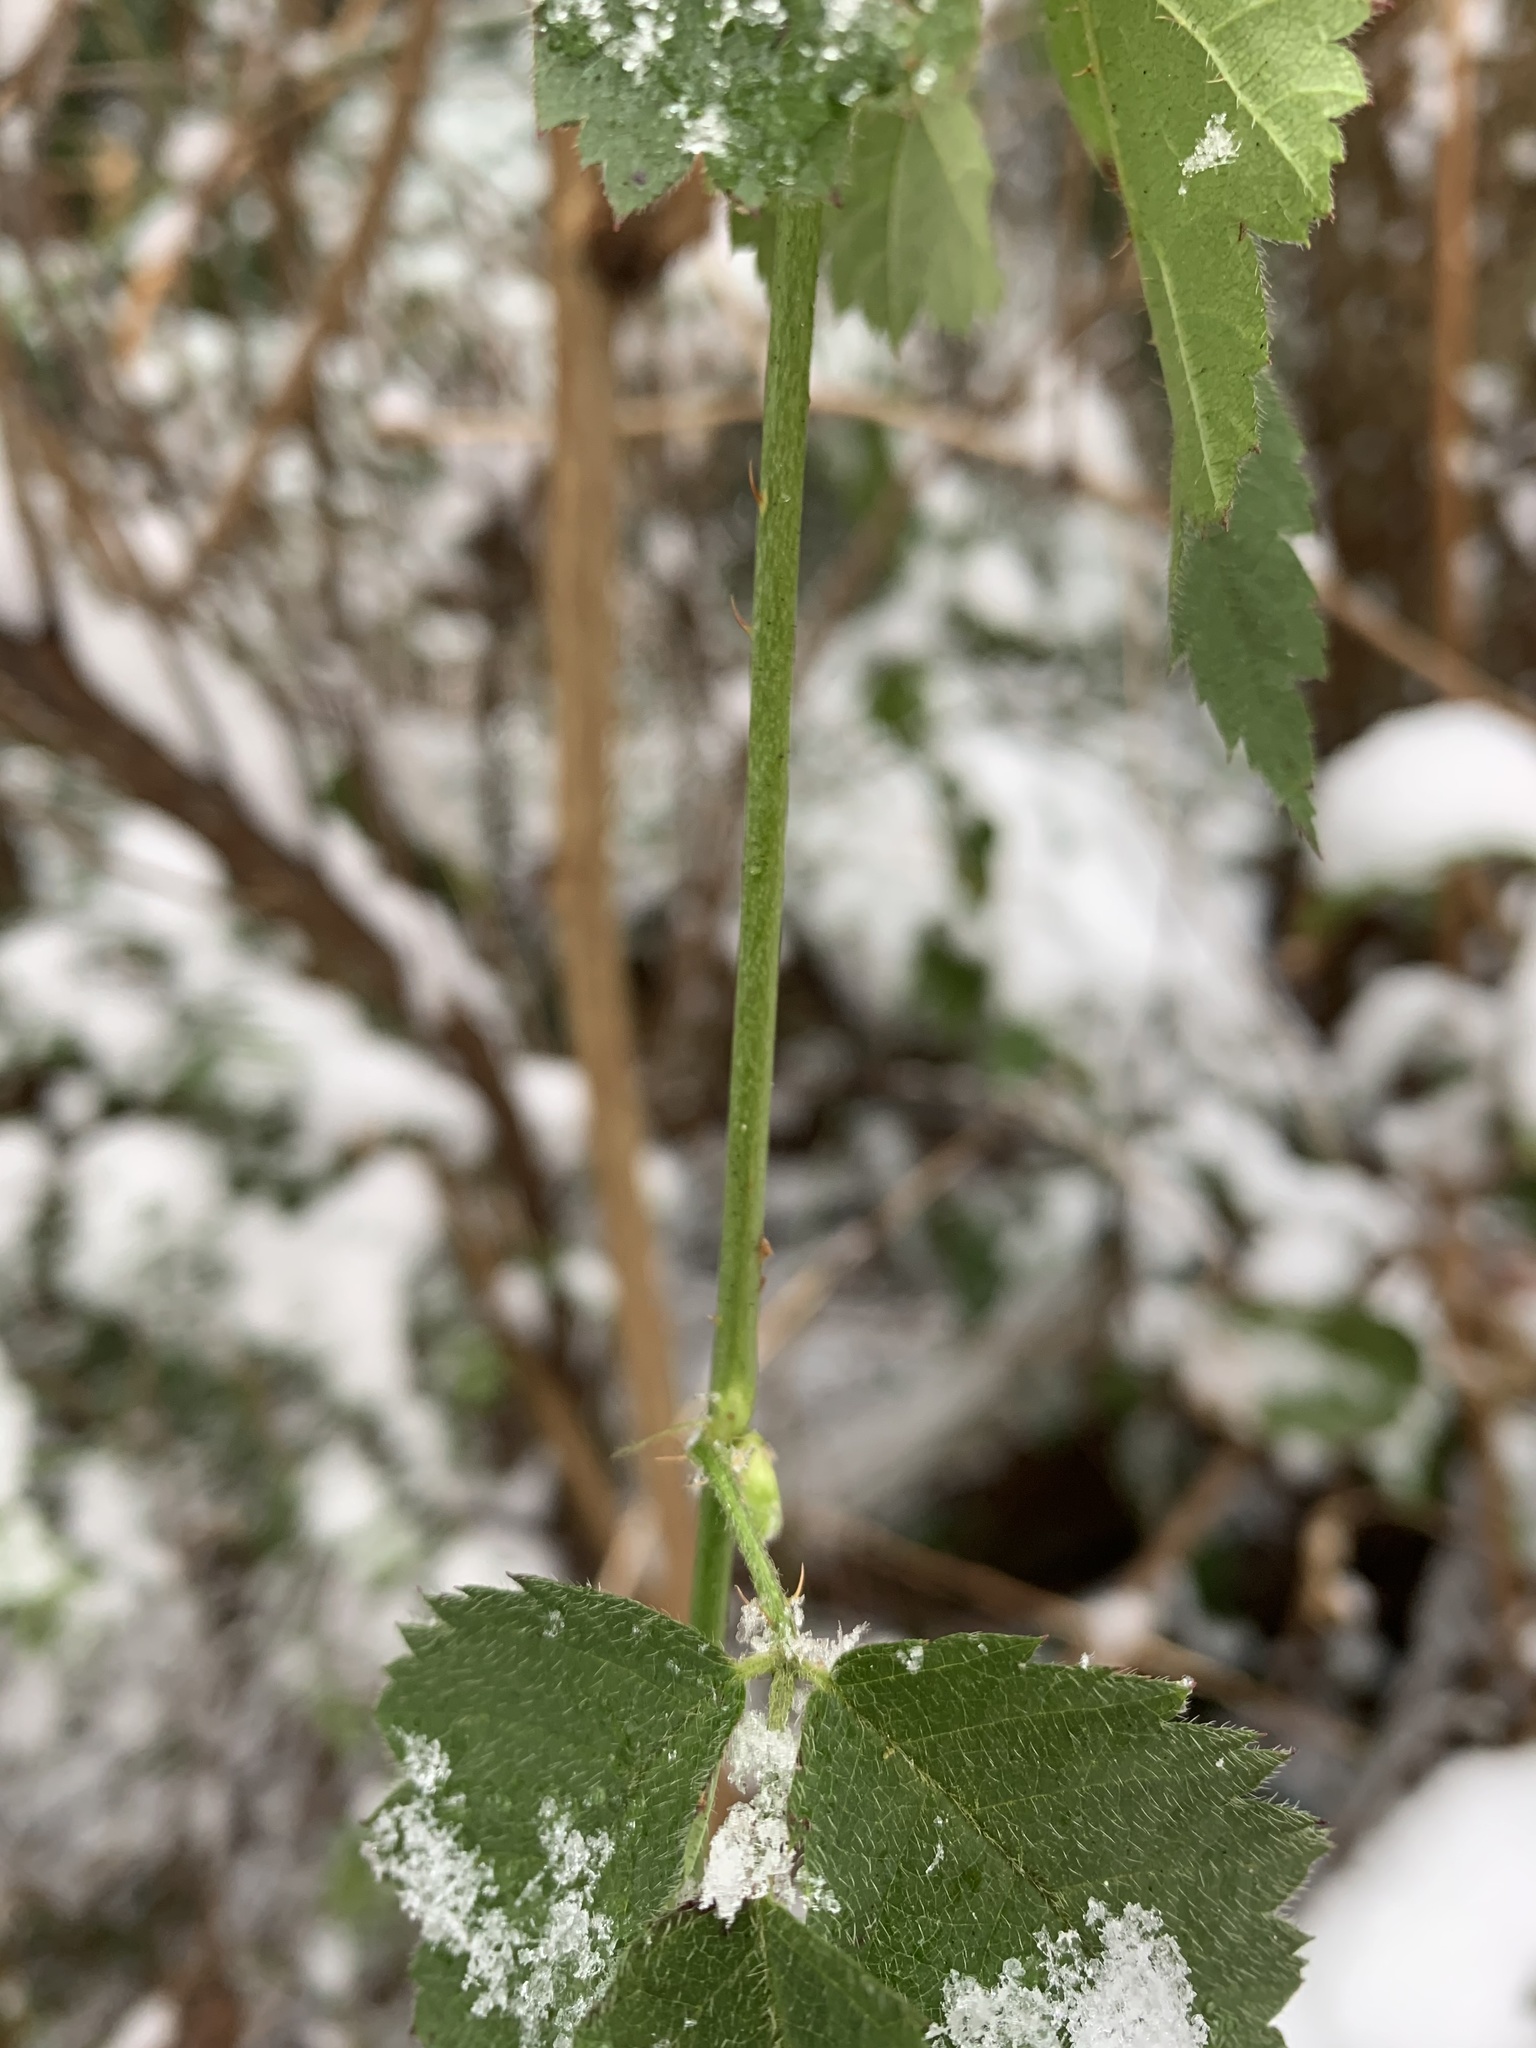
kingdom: Plantae
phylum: Tracheophyta
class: Magnoliopsida
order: Rosales
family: Rosaceae
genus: Rubus
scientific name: Rubus ursinus
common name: Pacific blackberry
